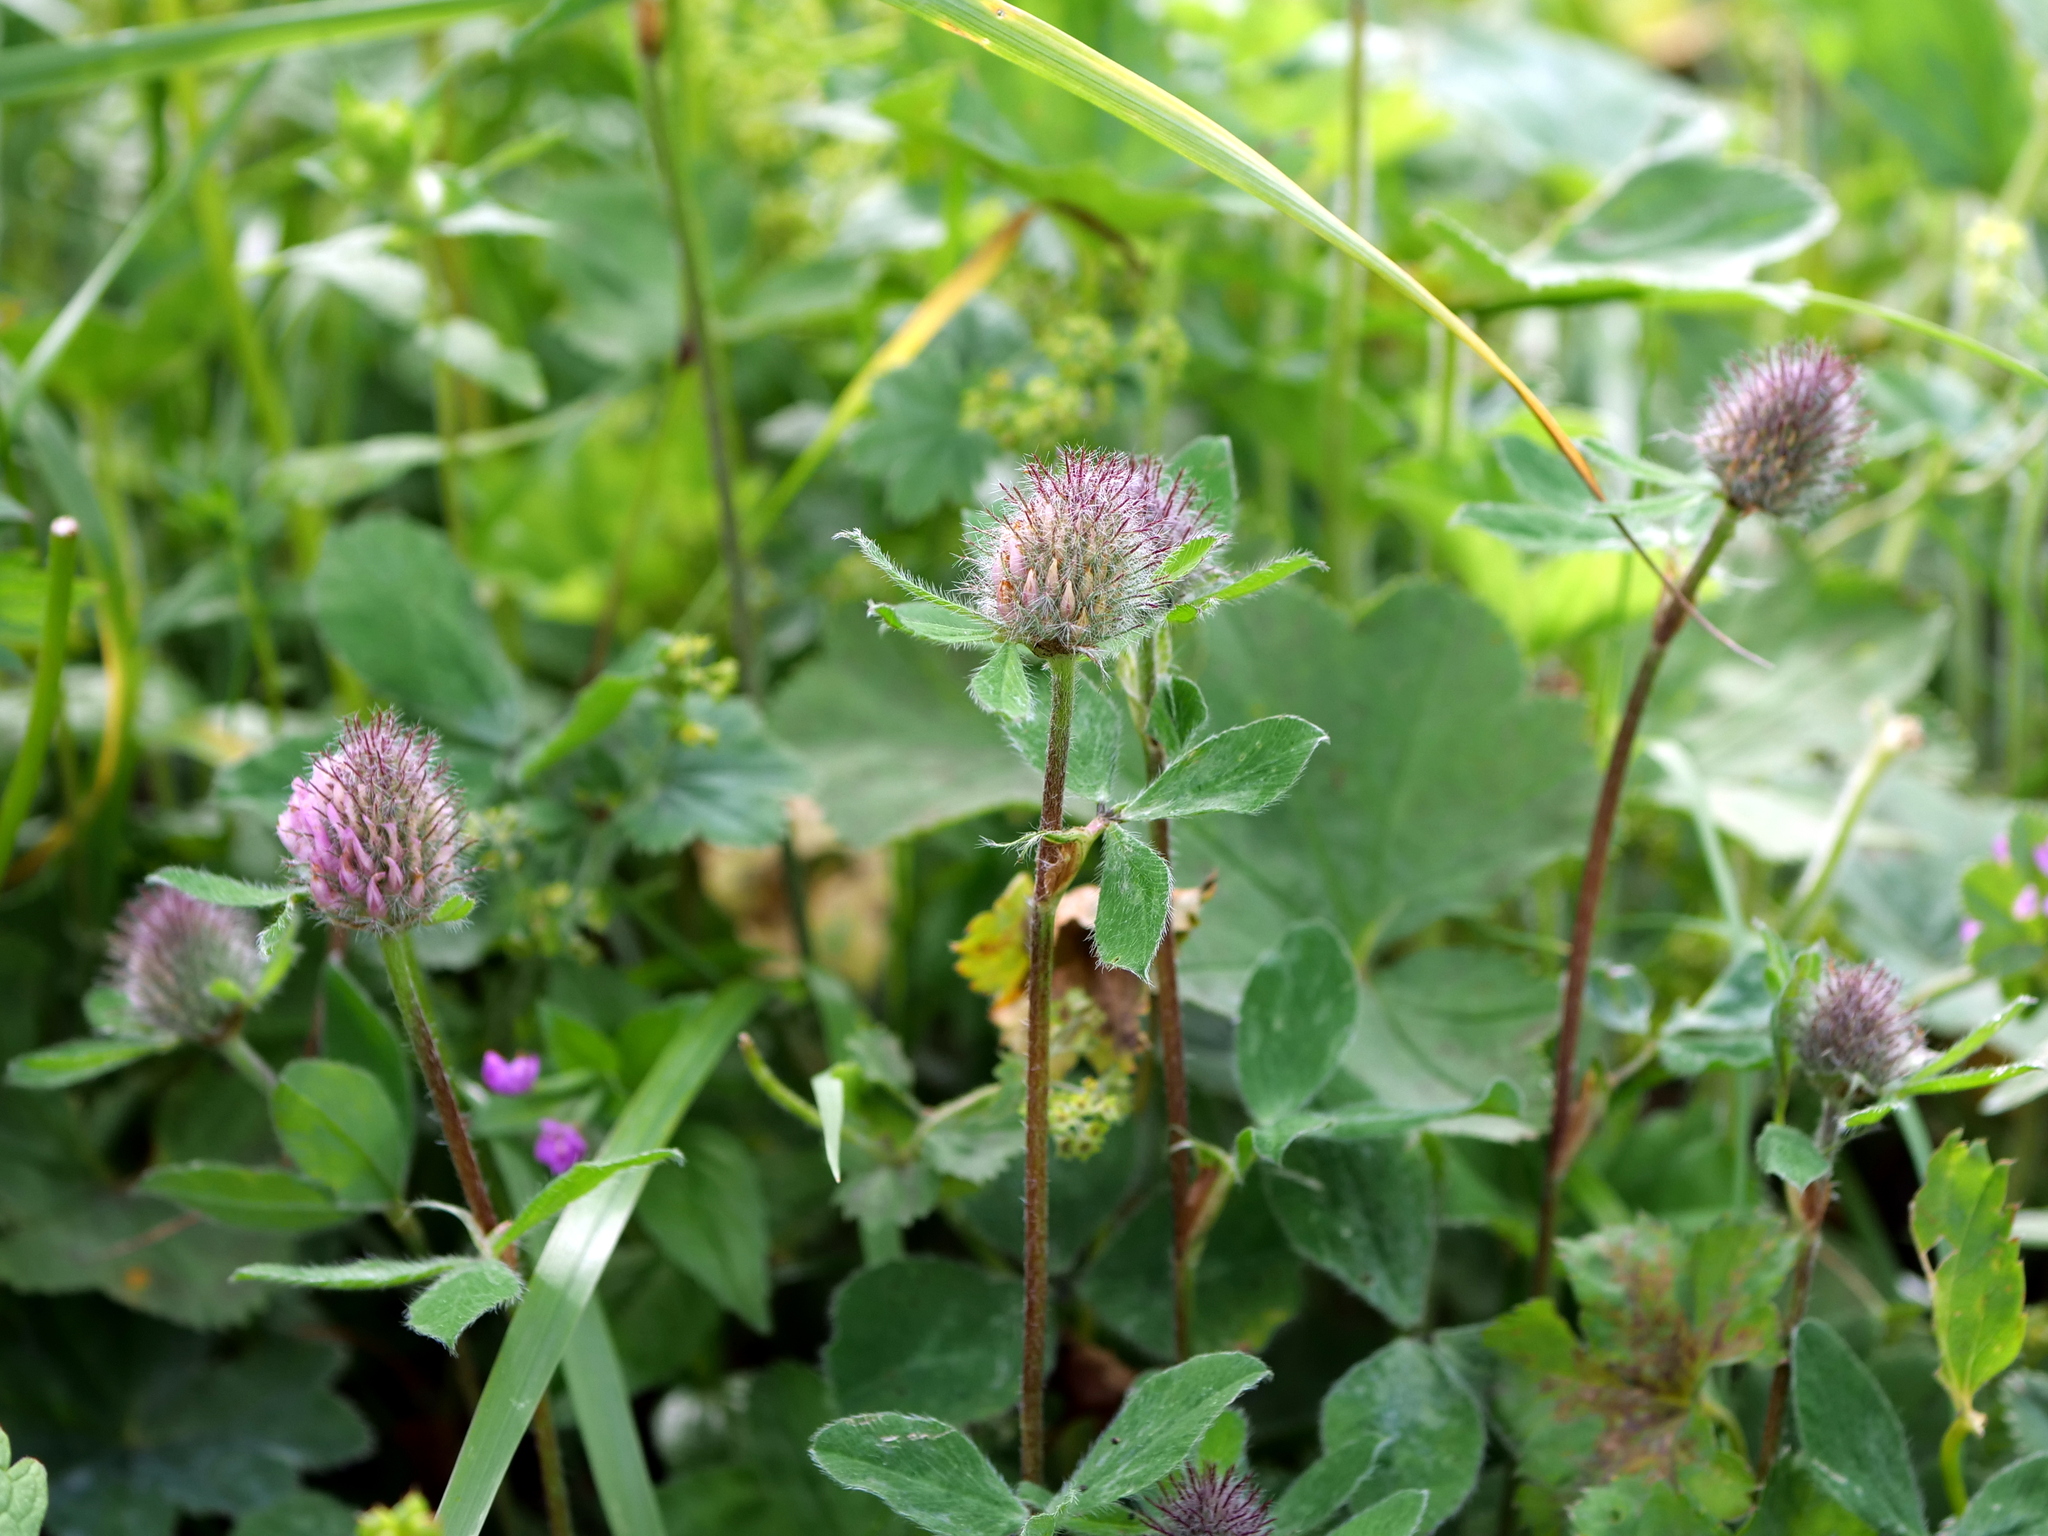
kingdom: Plantae
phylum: Tracheophyta
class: Magnoliopsida
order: Fabales
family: Fabaceae
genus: Trifolium
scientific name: Trifolium pratense
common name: Red clover
